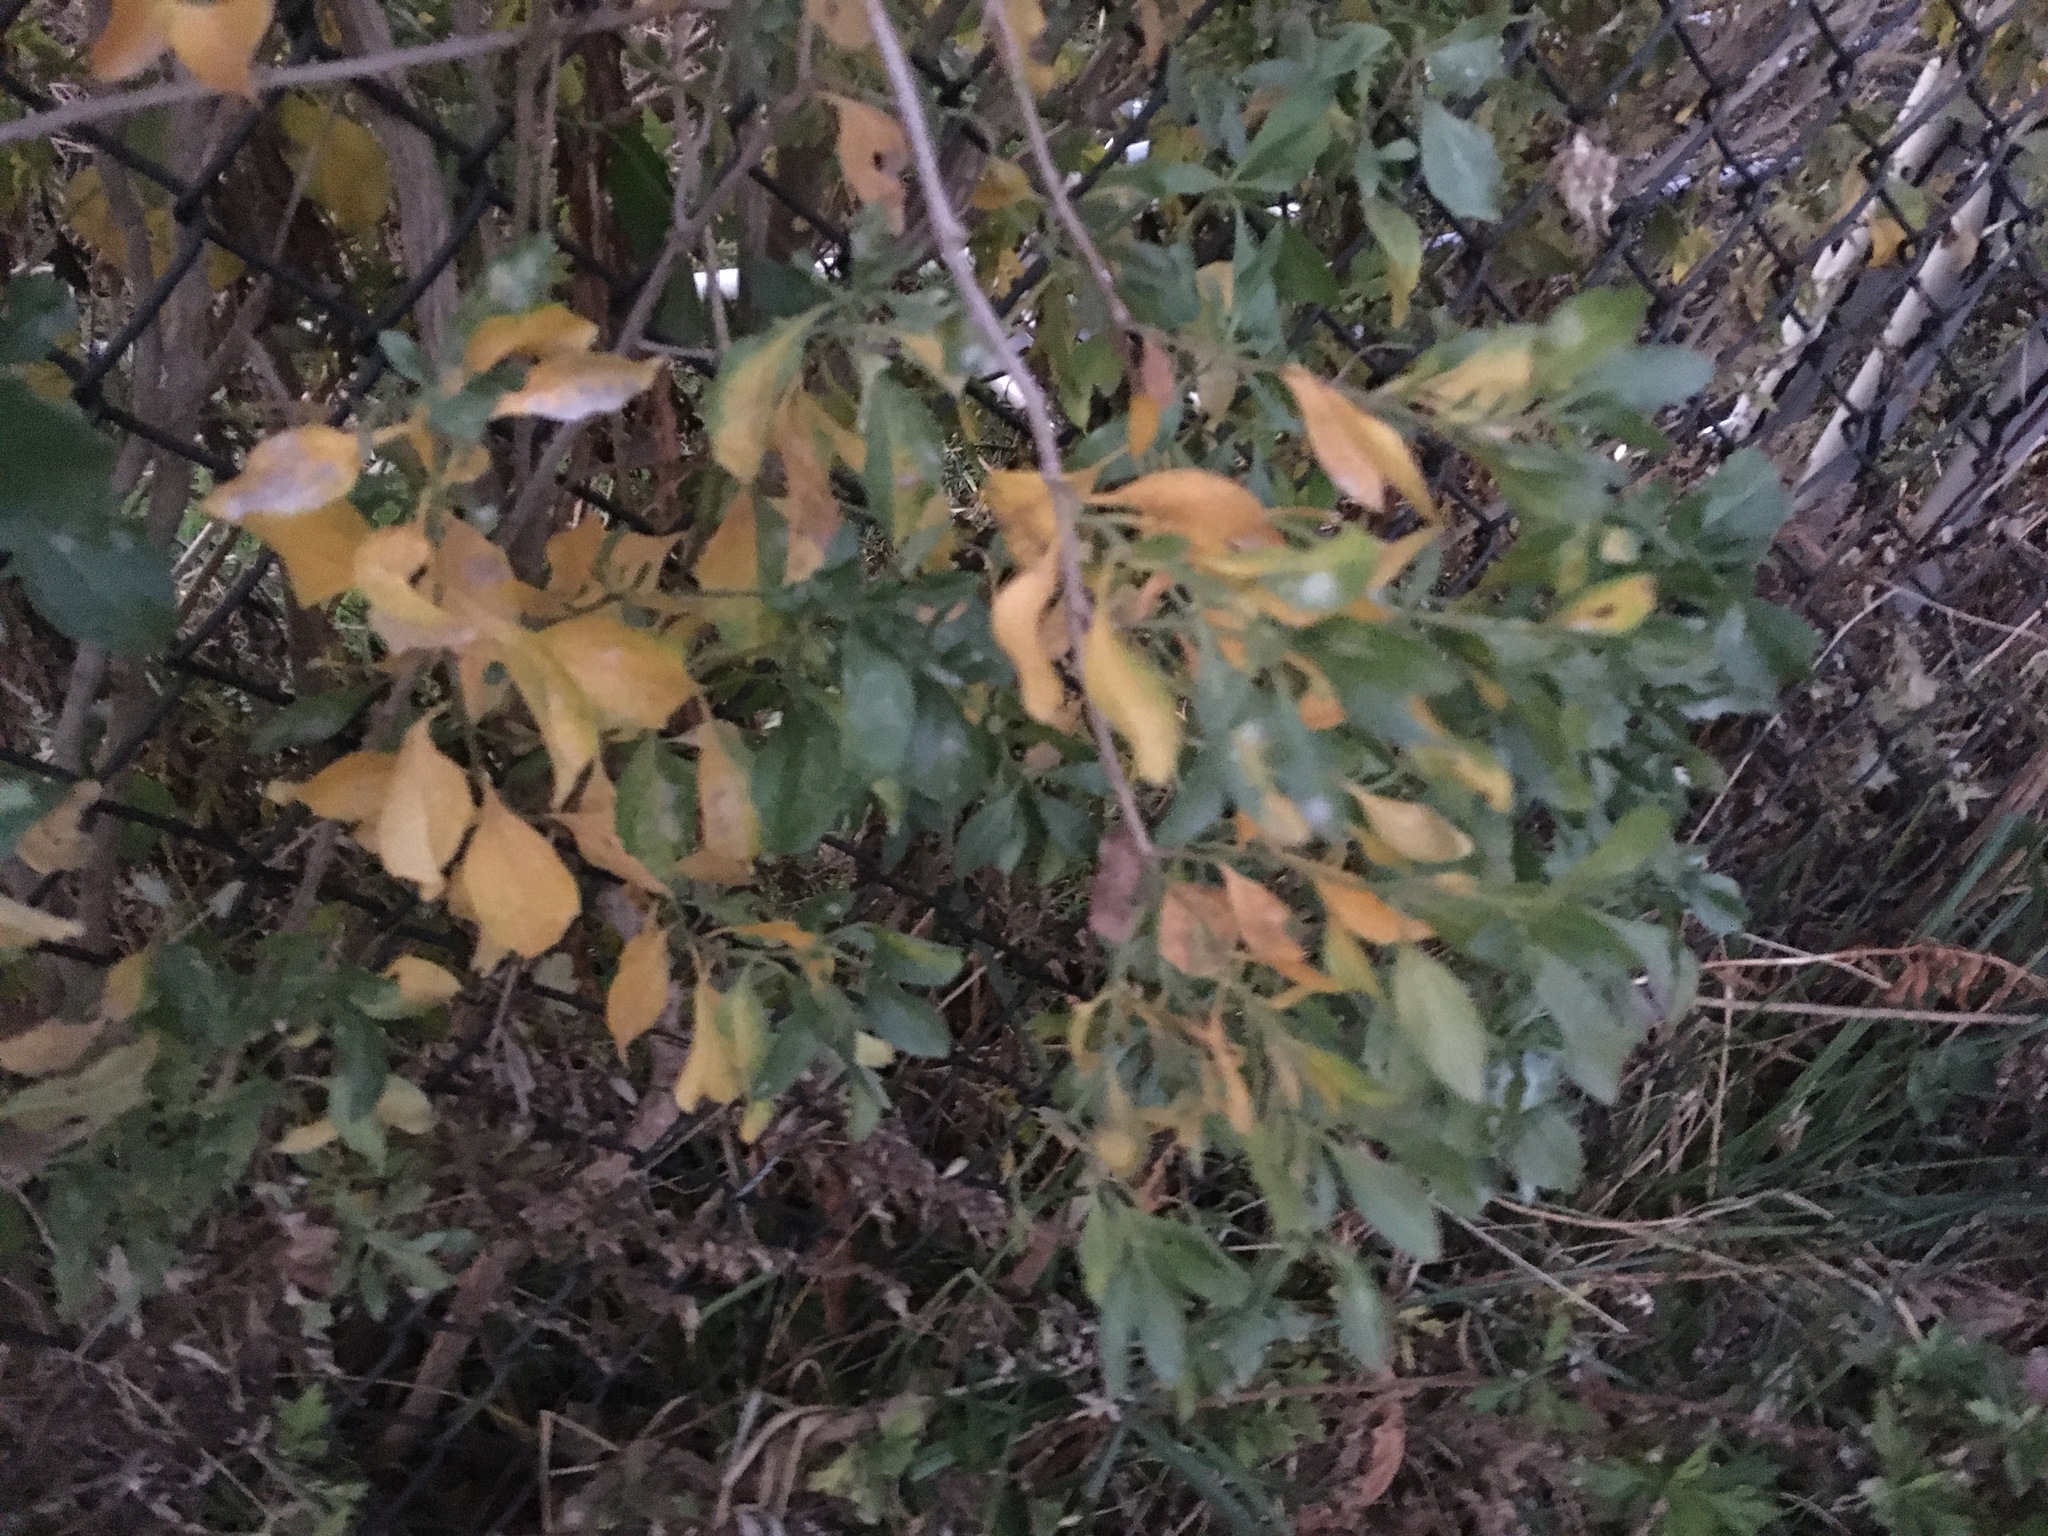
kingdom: Plantae
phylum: Tracheophyta
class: Magnoliopsida
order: Asterales
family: Asteraceae
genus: Baccharis
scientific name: Baccharis halimifolia
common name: Eastern baccharis
